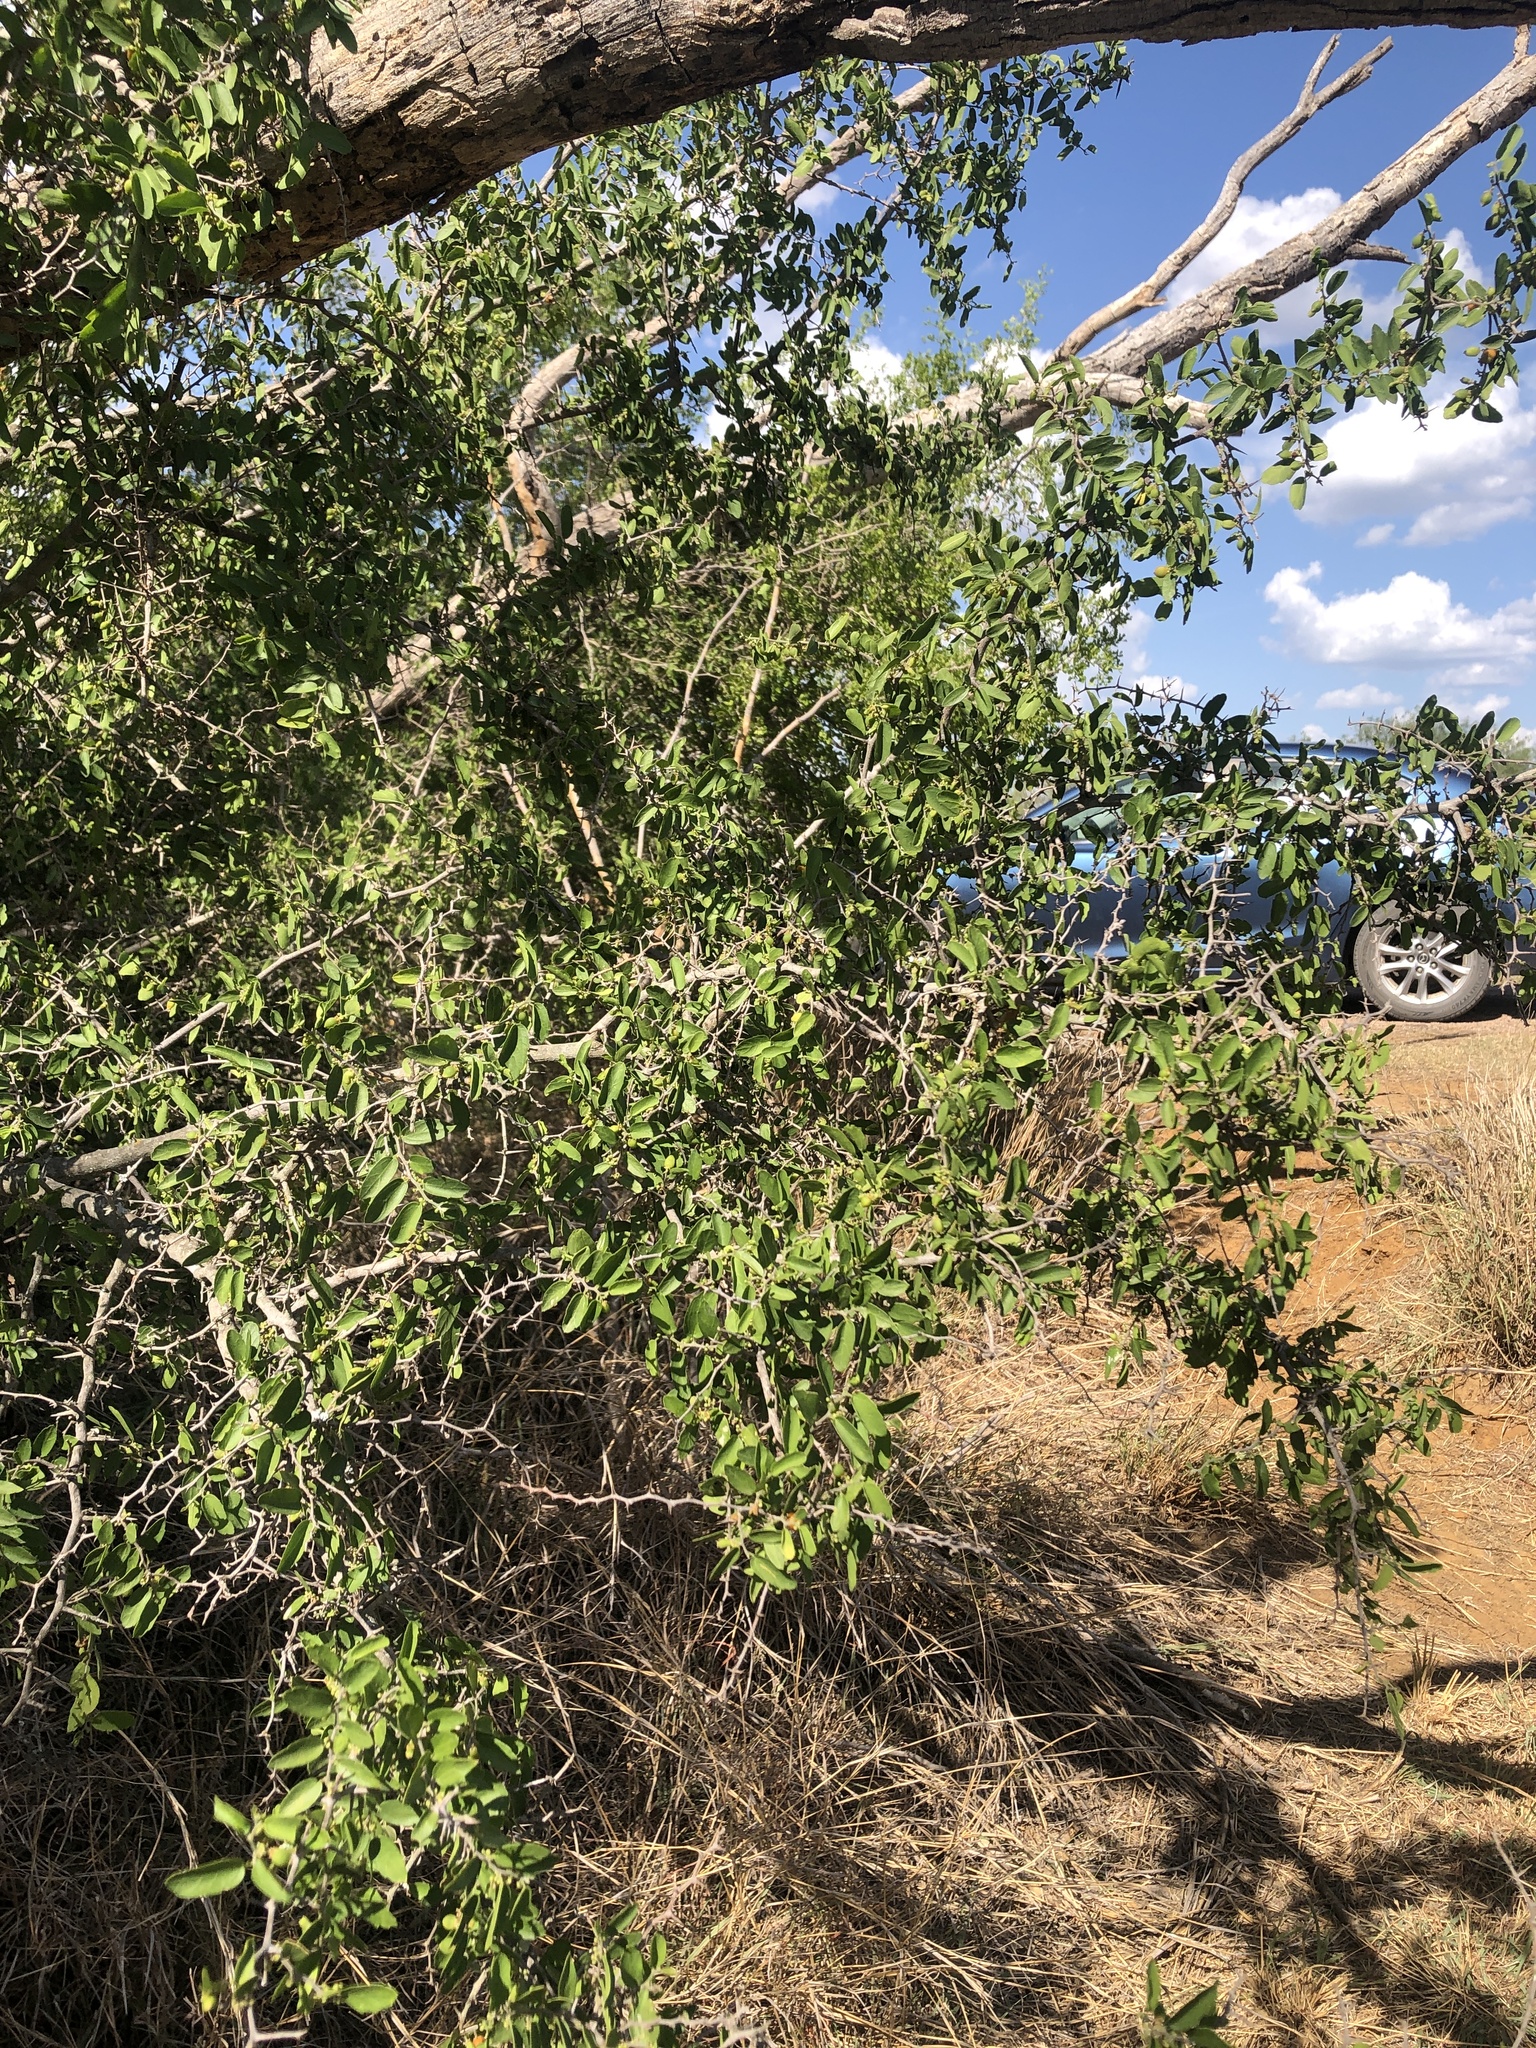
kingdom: Plantae
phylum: Tracheophyta
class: Magnoliopsida
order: Rosales
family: Cannabaceae
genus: Celtis
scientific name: Celtis pallida
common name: Desert hackberry
